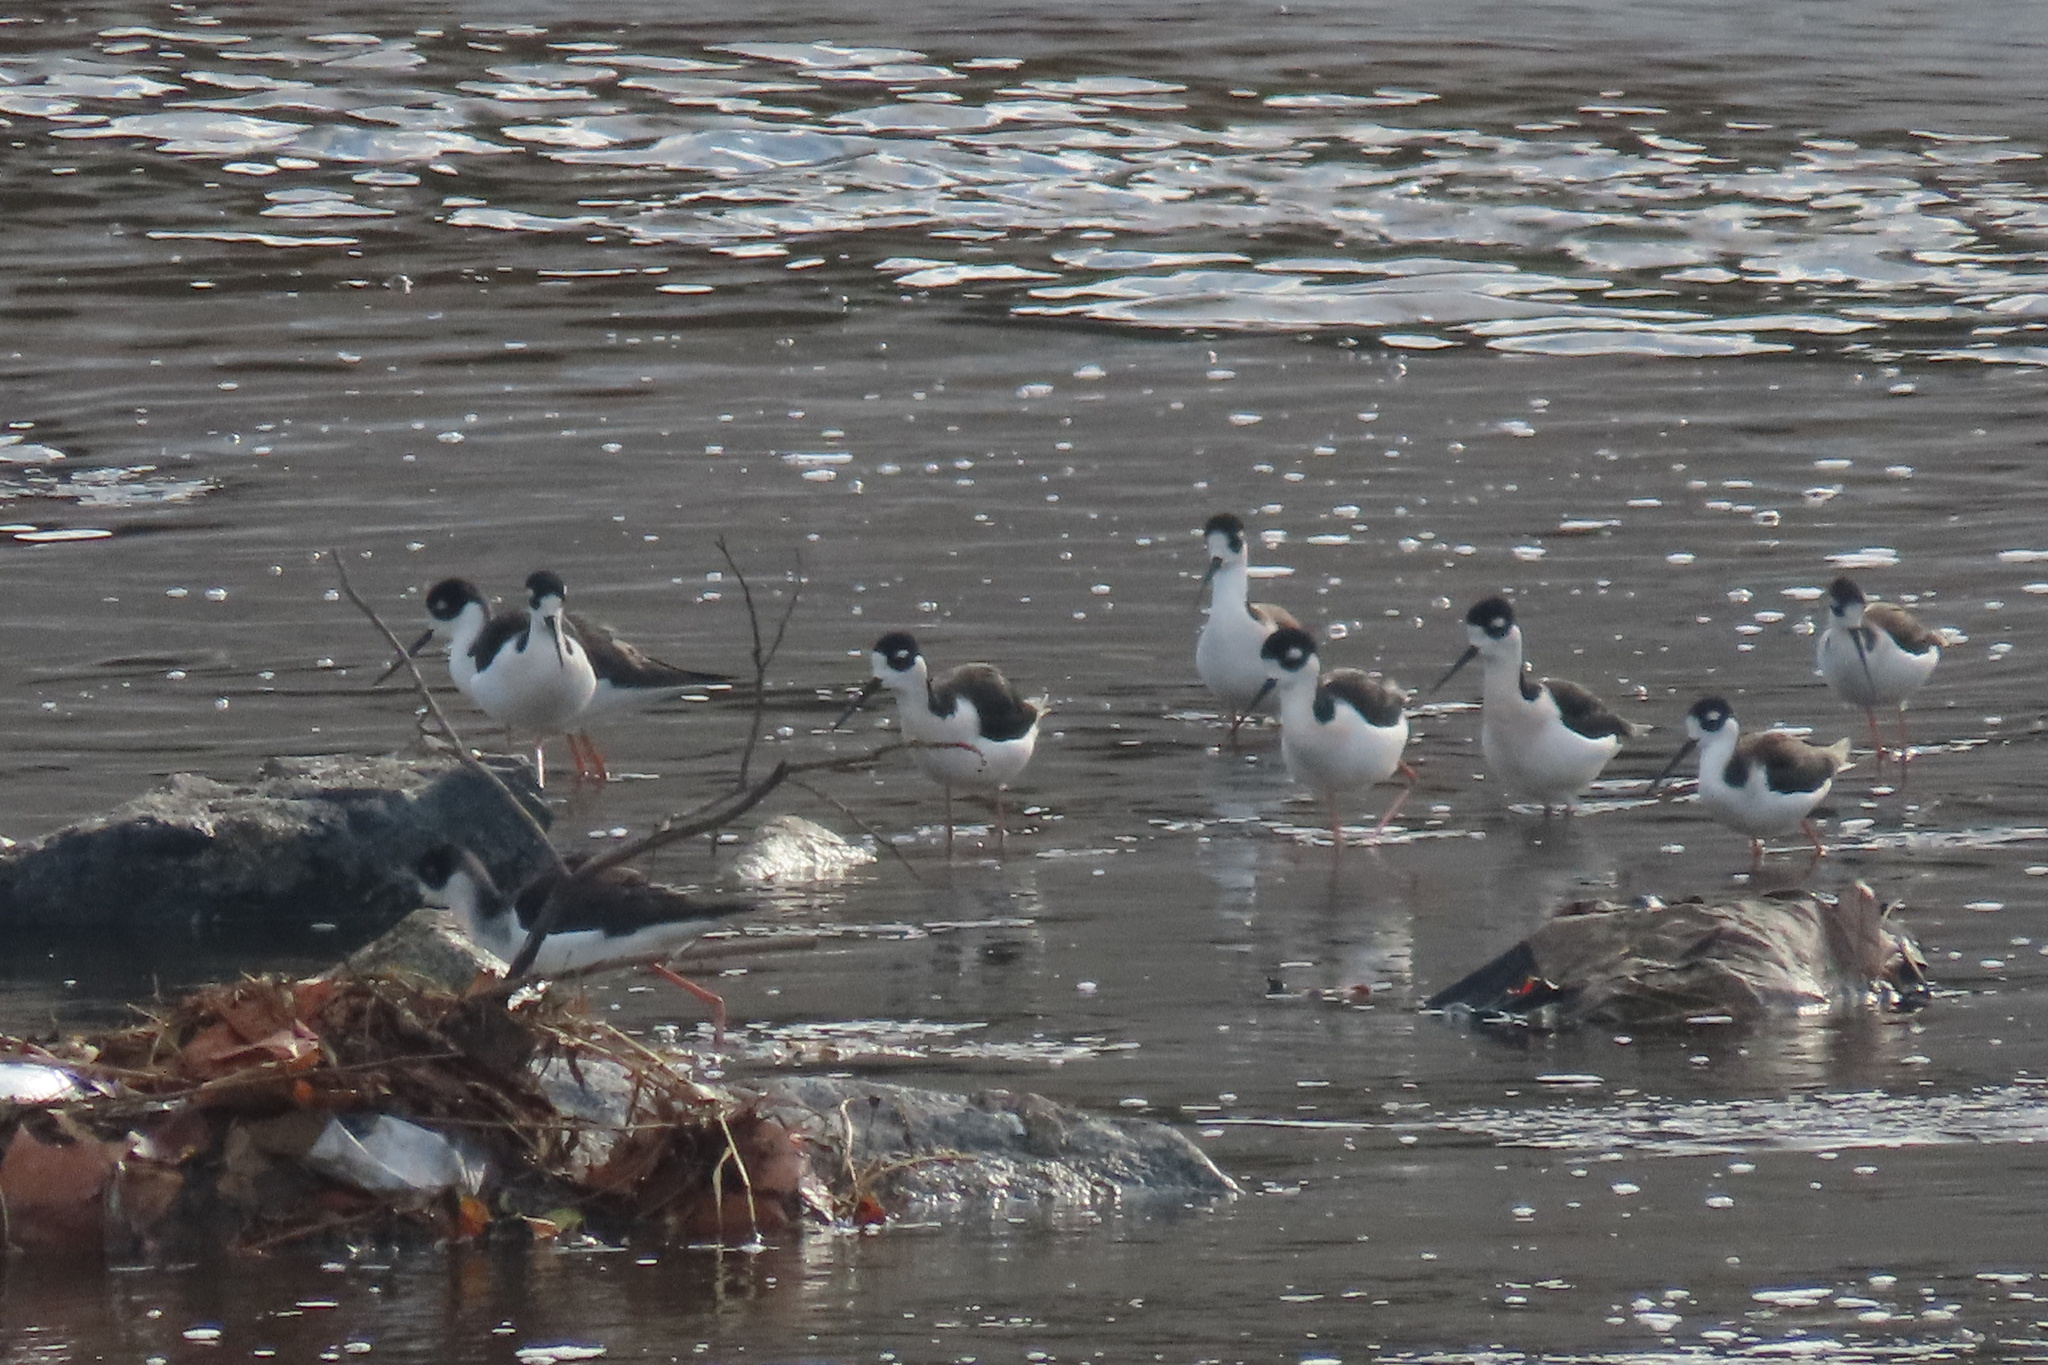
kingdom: Animalia
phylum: Chordata
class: Aves
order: Charadriiformes
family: Recurvirostridae
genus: Himantopus
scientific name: Himantopus mexicanus
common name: Black-necked stilt
